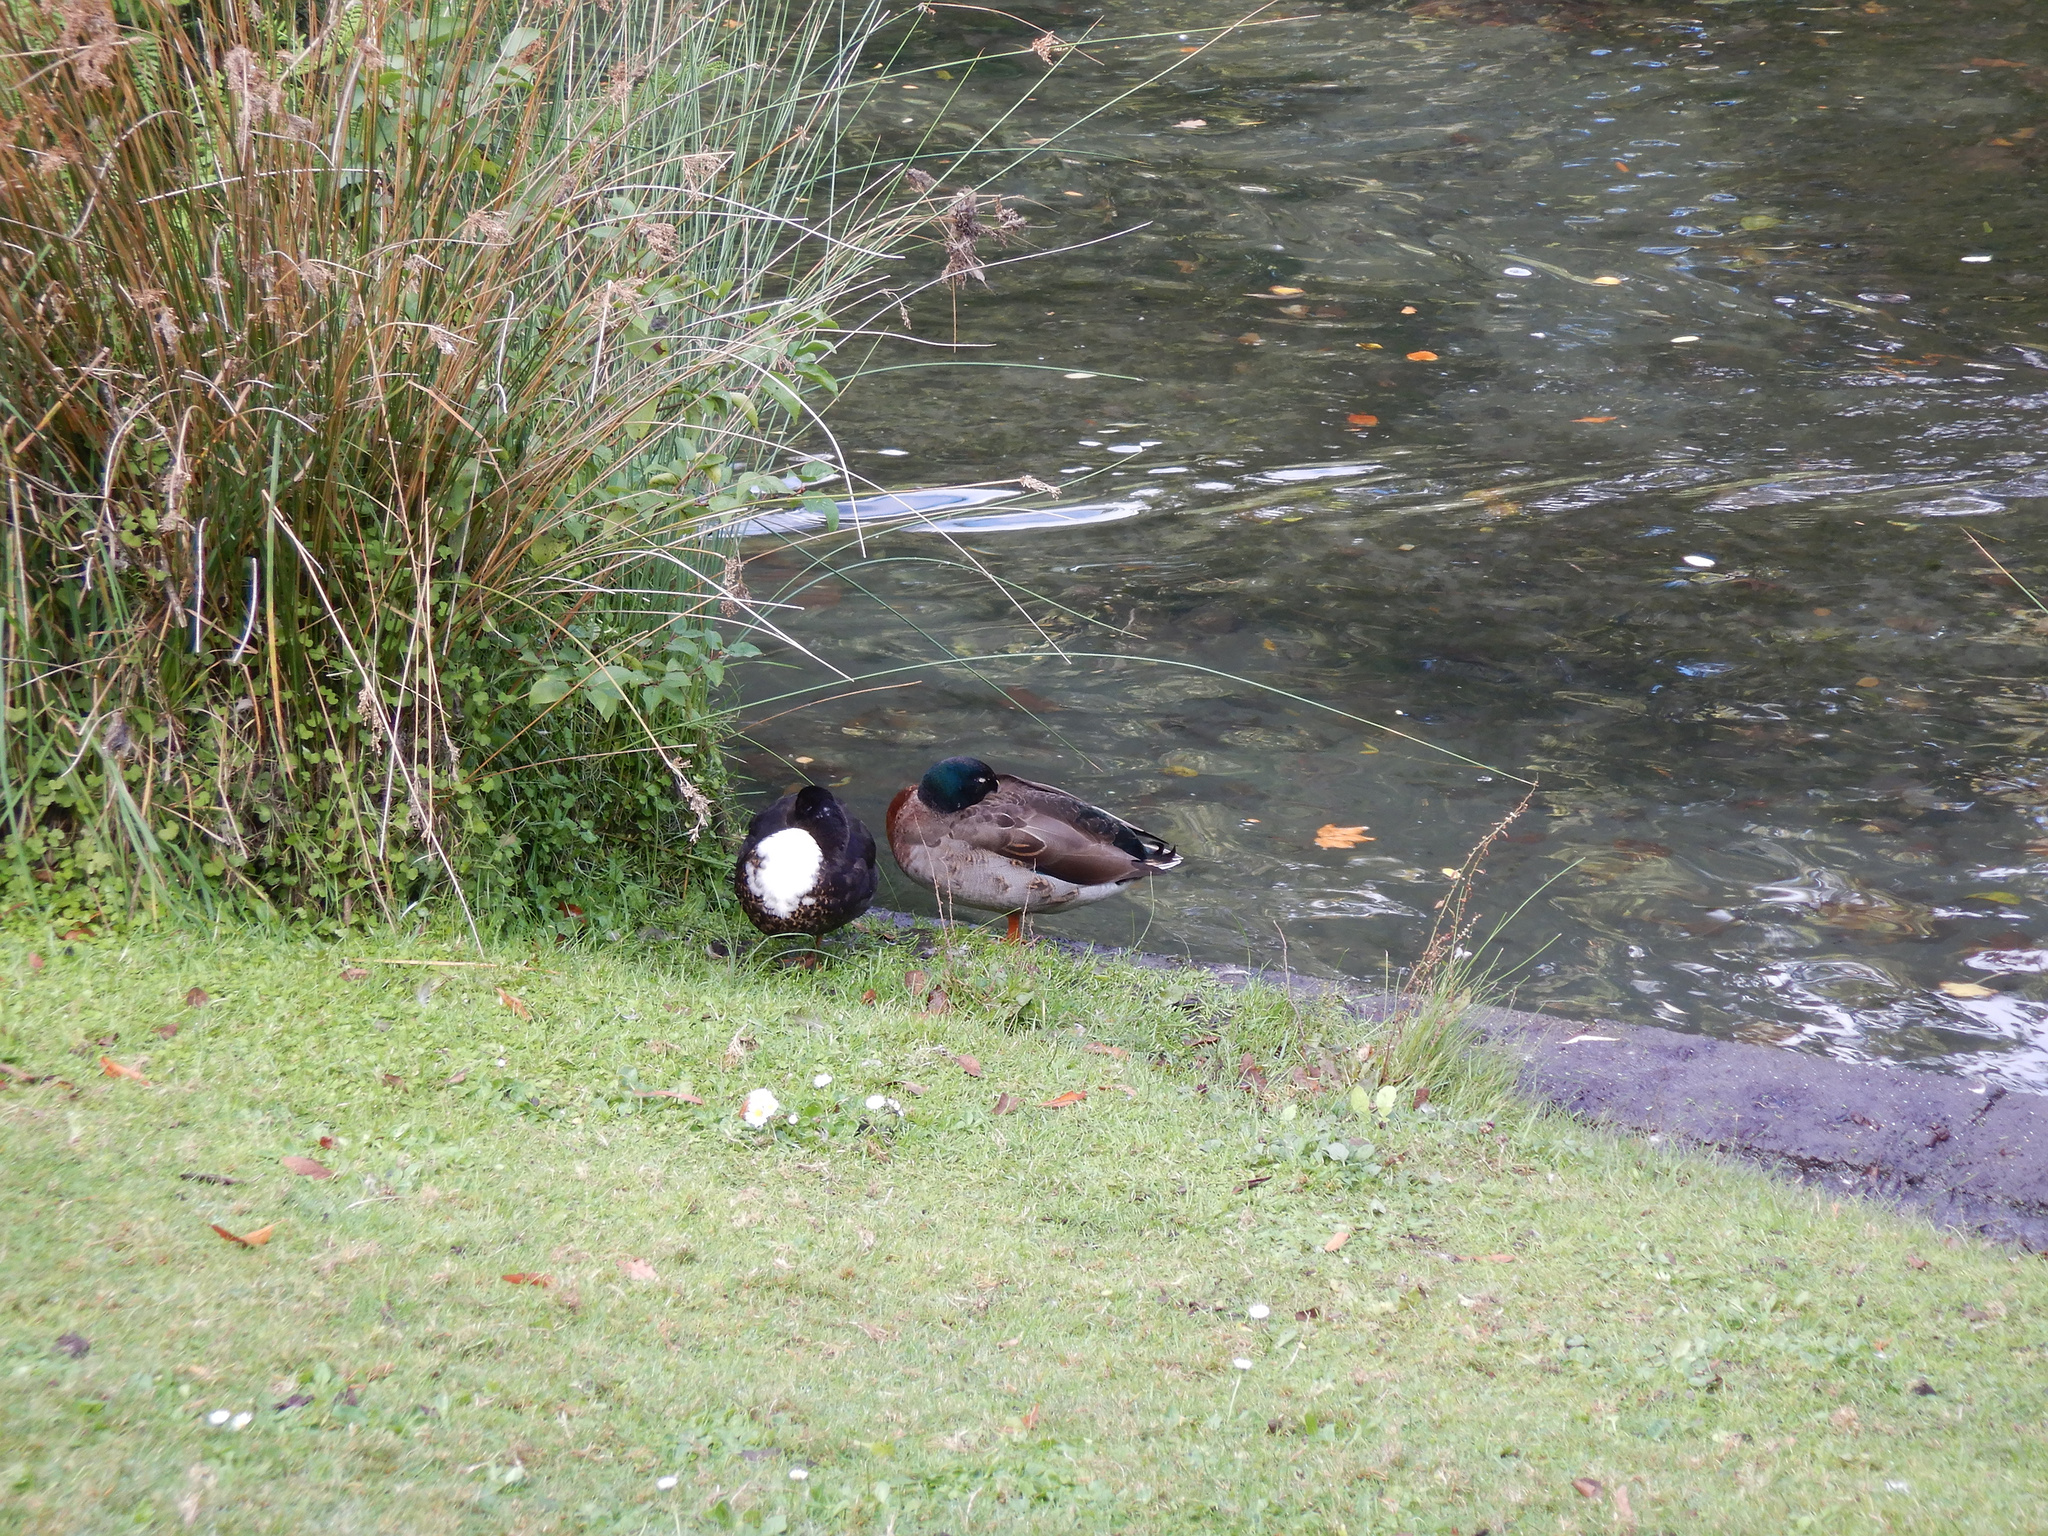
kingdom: Animalia
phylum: Chordata
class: Aves
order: Anseriformes
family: Anatidae
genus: Anas
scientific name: Anas platyrhynchos
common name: Mallard
